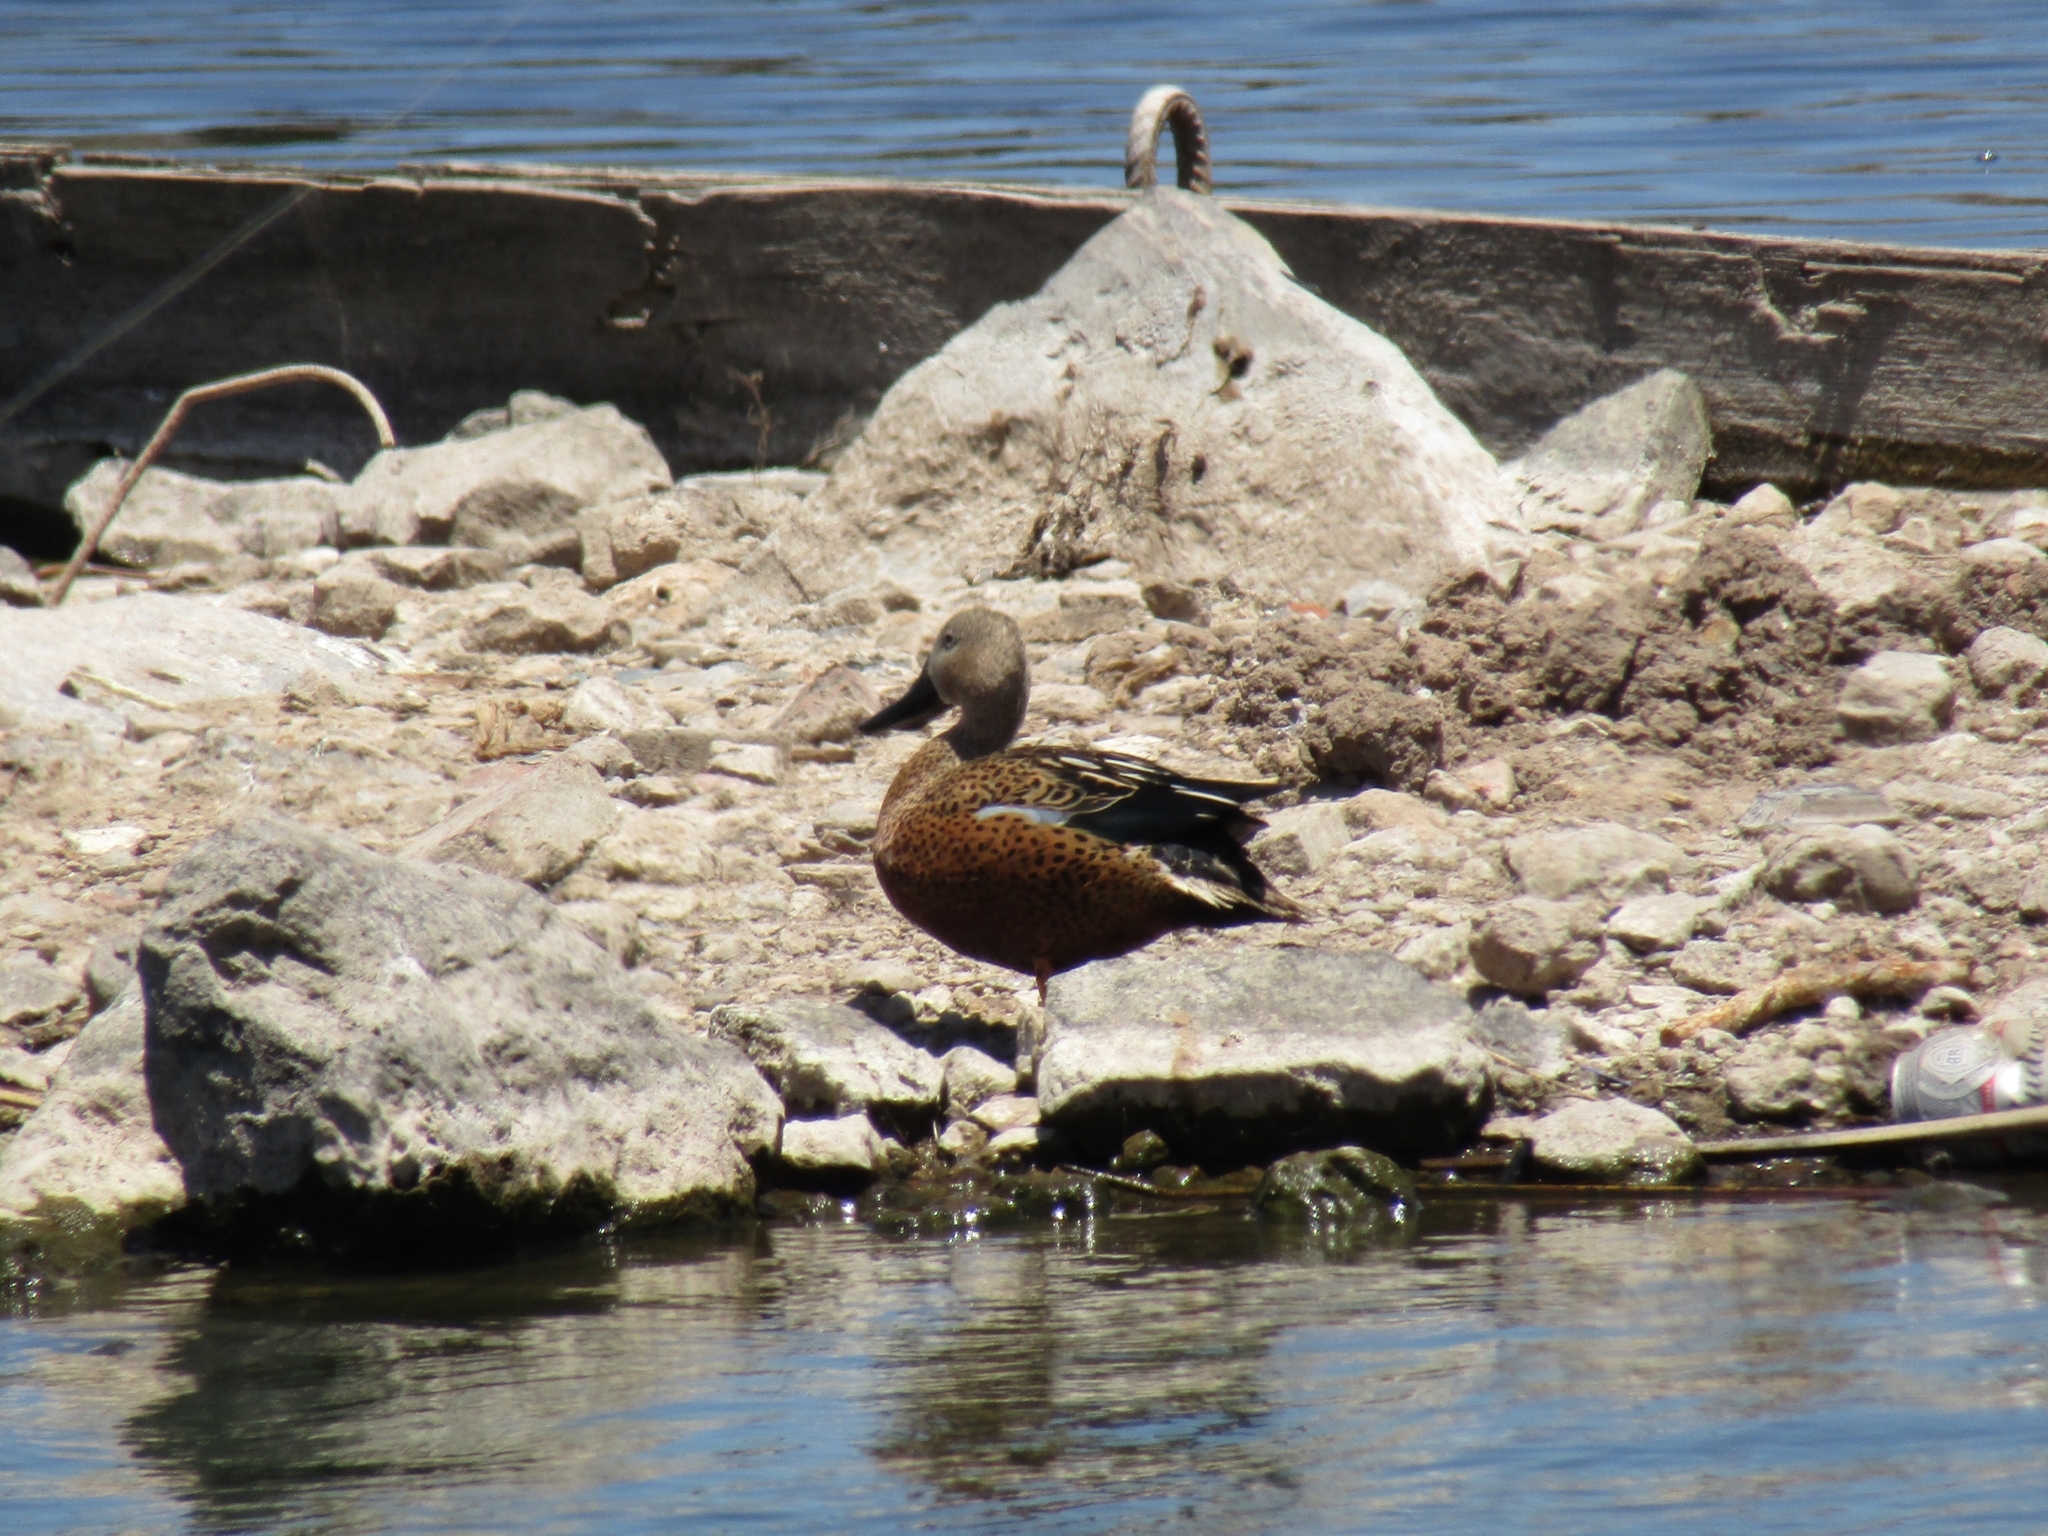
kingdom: Animalia
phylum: Chordata
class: Aves
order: Anseriformes
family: Anatidae
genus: Spatula
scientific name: Spatula platalea
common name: Red shoveler
